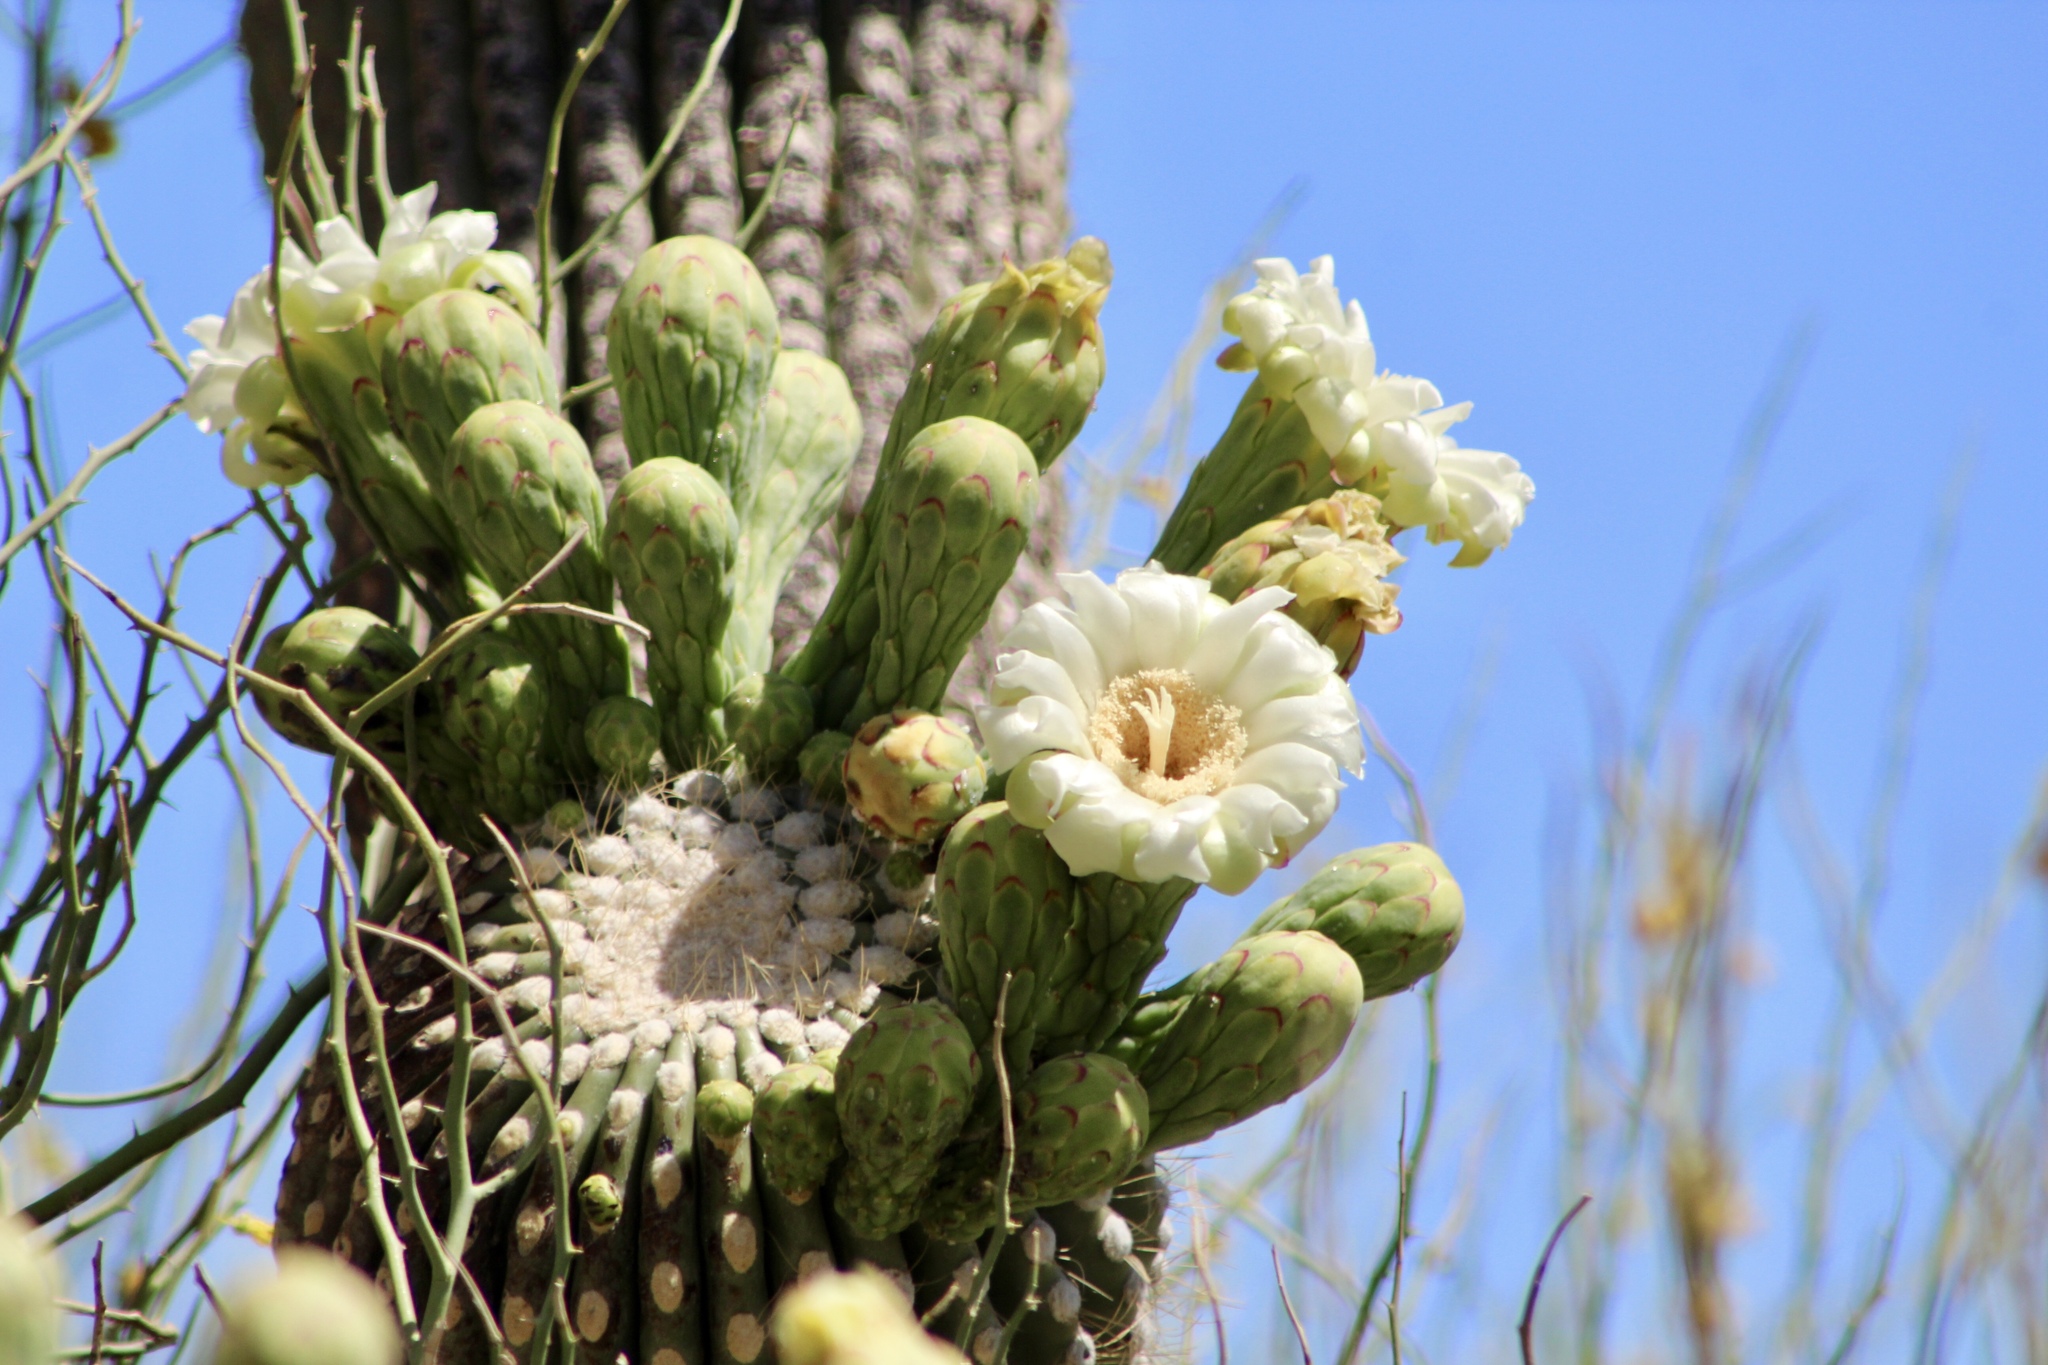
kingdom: Plantae
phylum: Tracheophyta
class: Magnoliopsida
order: Caryophyllales
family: Cactaceae
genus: Carnegiea
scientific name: Carnegiea gigantea
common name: Saguaro
